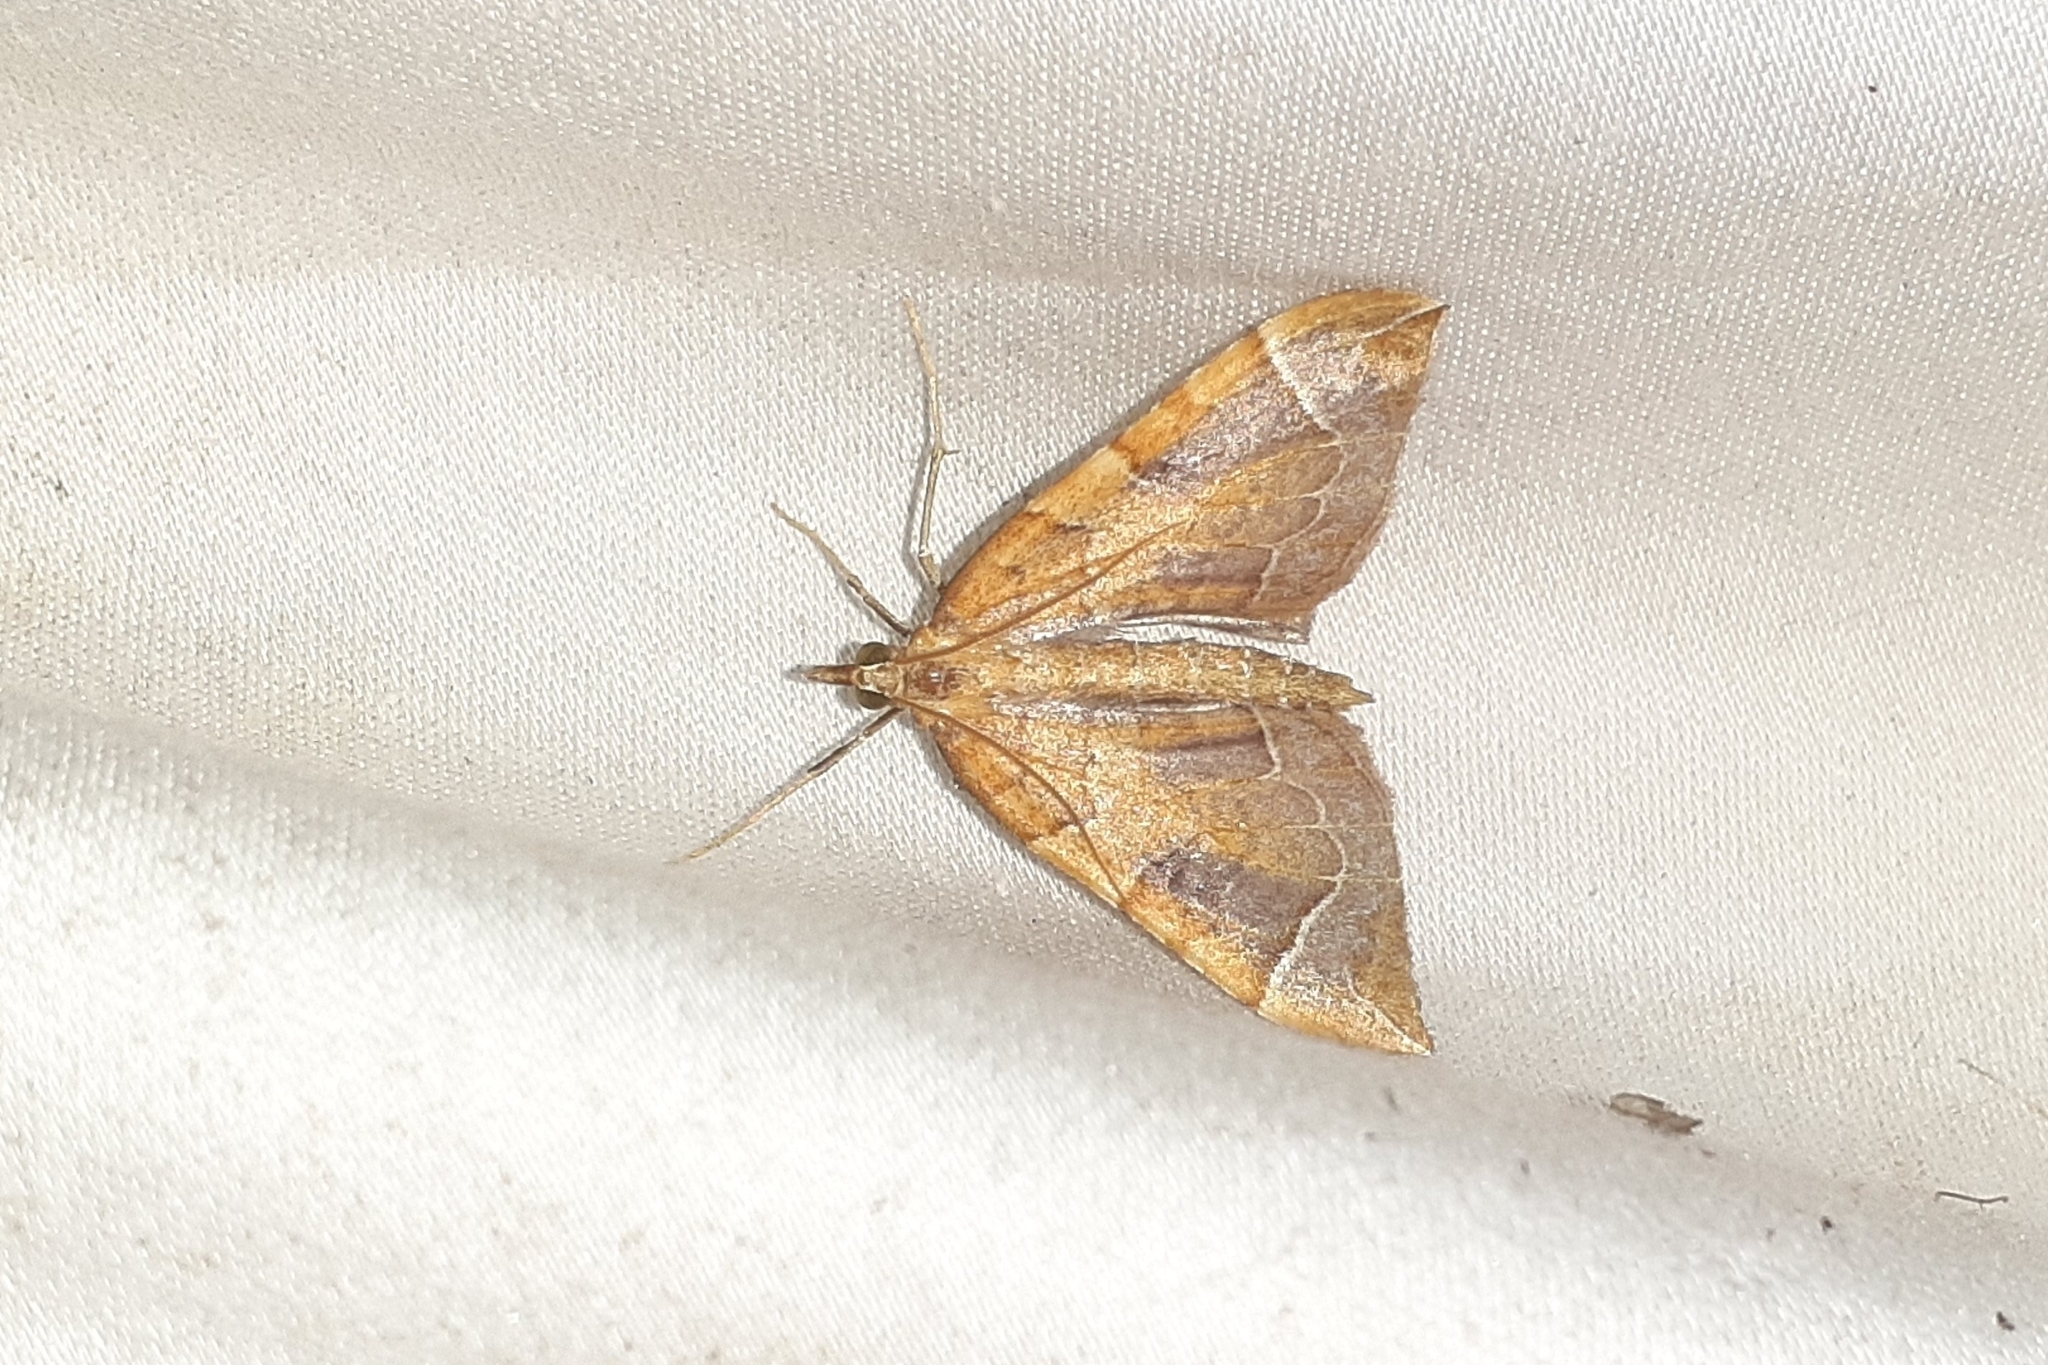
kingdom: Animalia
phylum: Arthropoda
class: Insecta
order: Lepidoptera
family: Geometridae
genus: Eulithis
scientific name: Eulithis testata
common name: Chevron
